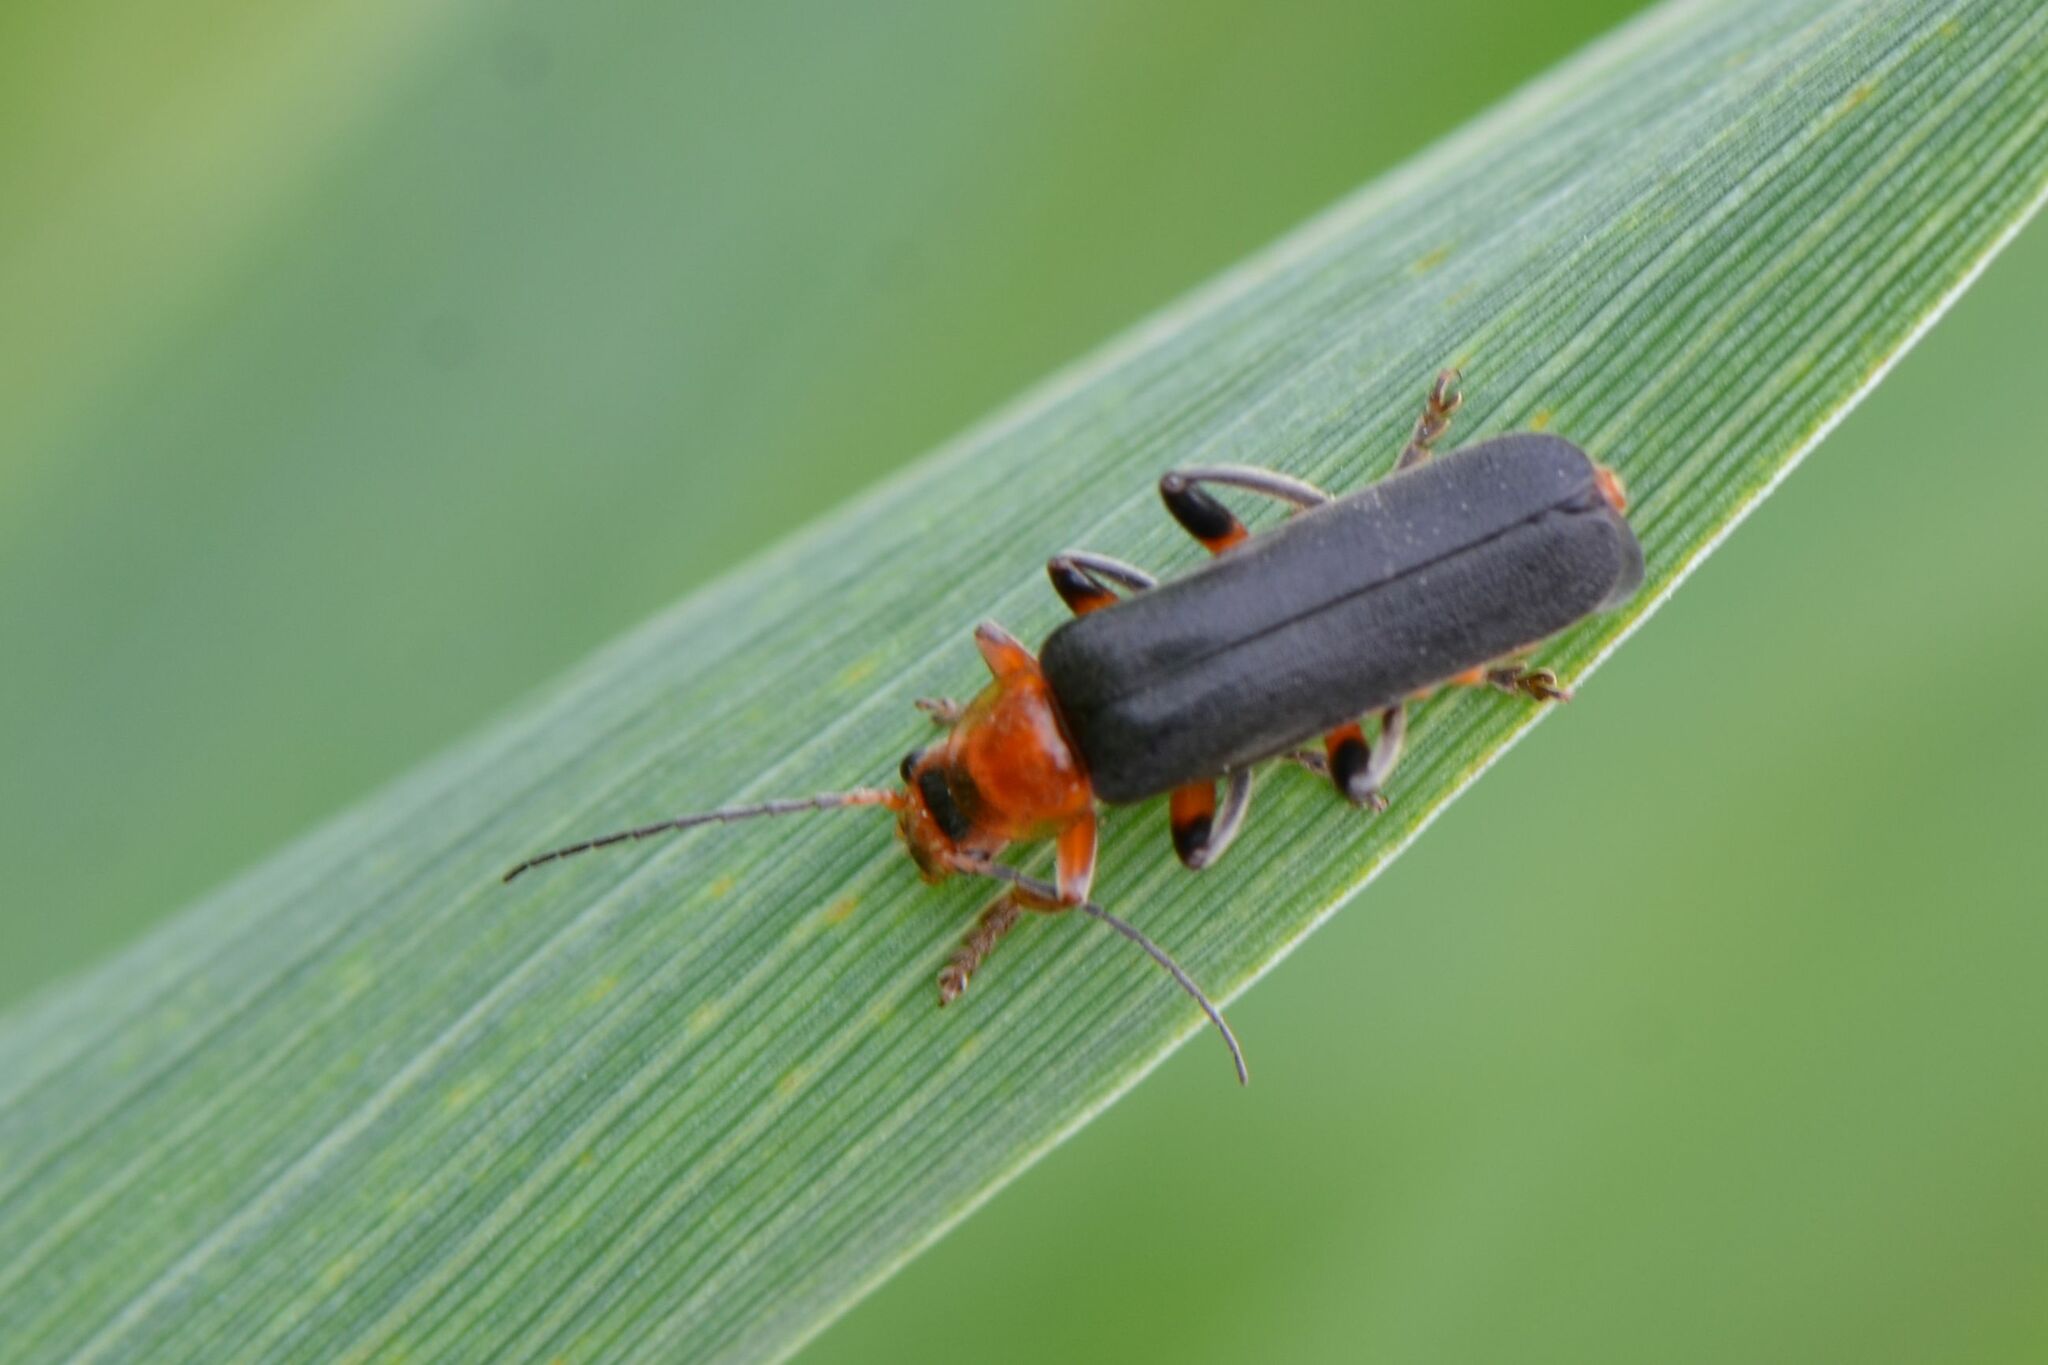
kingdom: Animalia
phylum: Arthropoda
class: Insecta
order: Coleoptera
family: Cantharidae
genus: Cantharis
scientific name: Cantharis livida
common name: Livid soldier beetle
